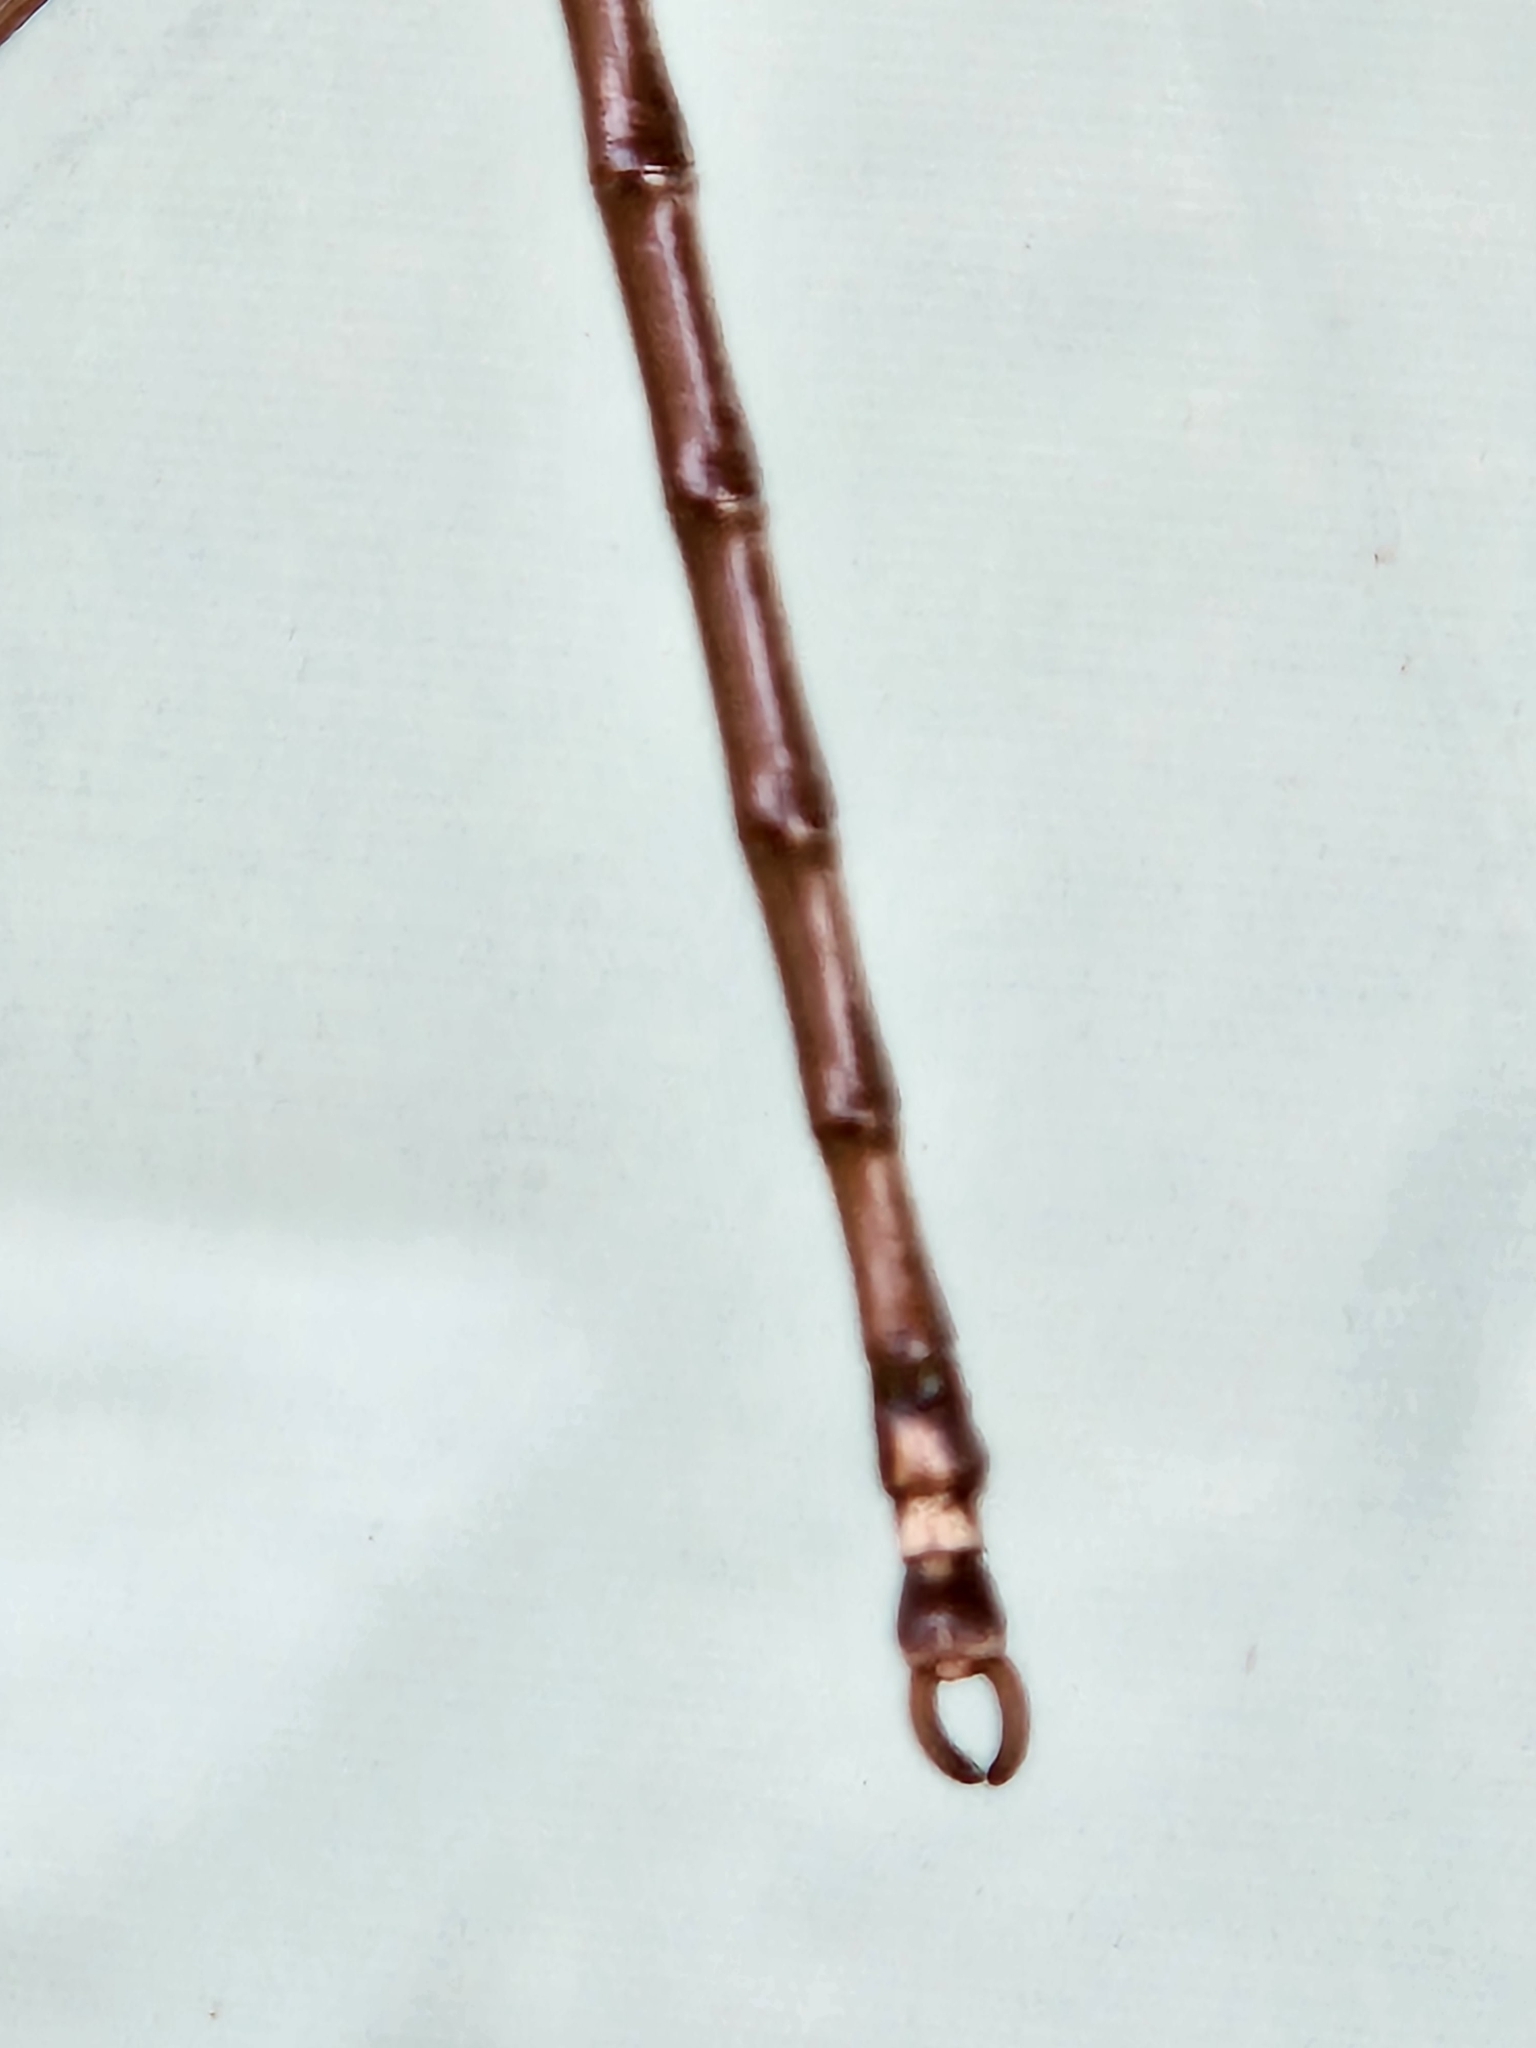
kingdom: Animalia
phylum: Arthropoda
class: Insecta
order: Phasmida
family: Diapheromeridae
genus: Diapheromera
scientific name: Diapheromera femorata
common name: Common american walkingstick
